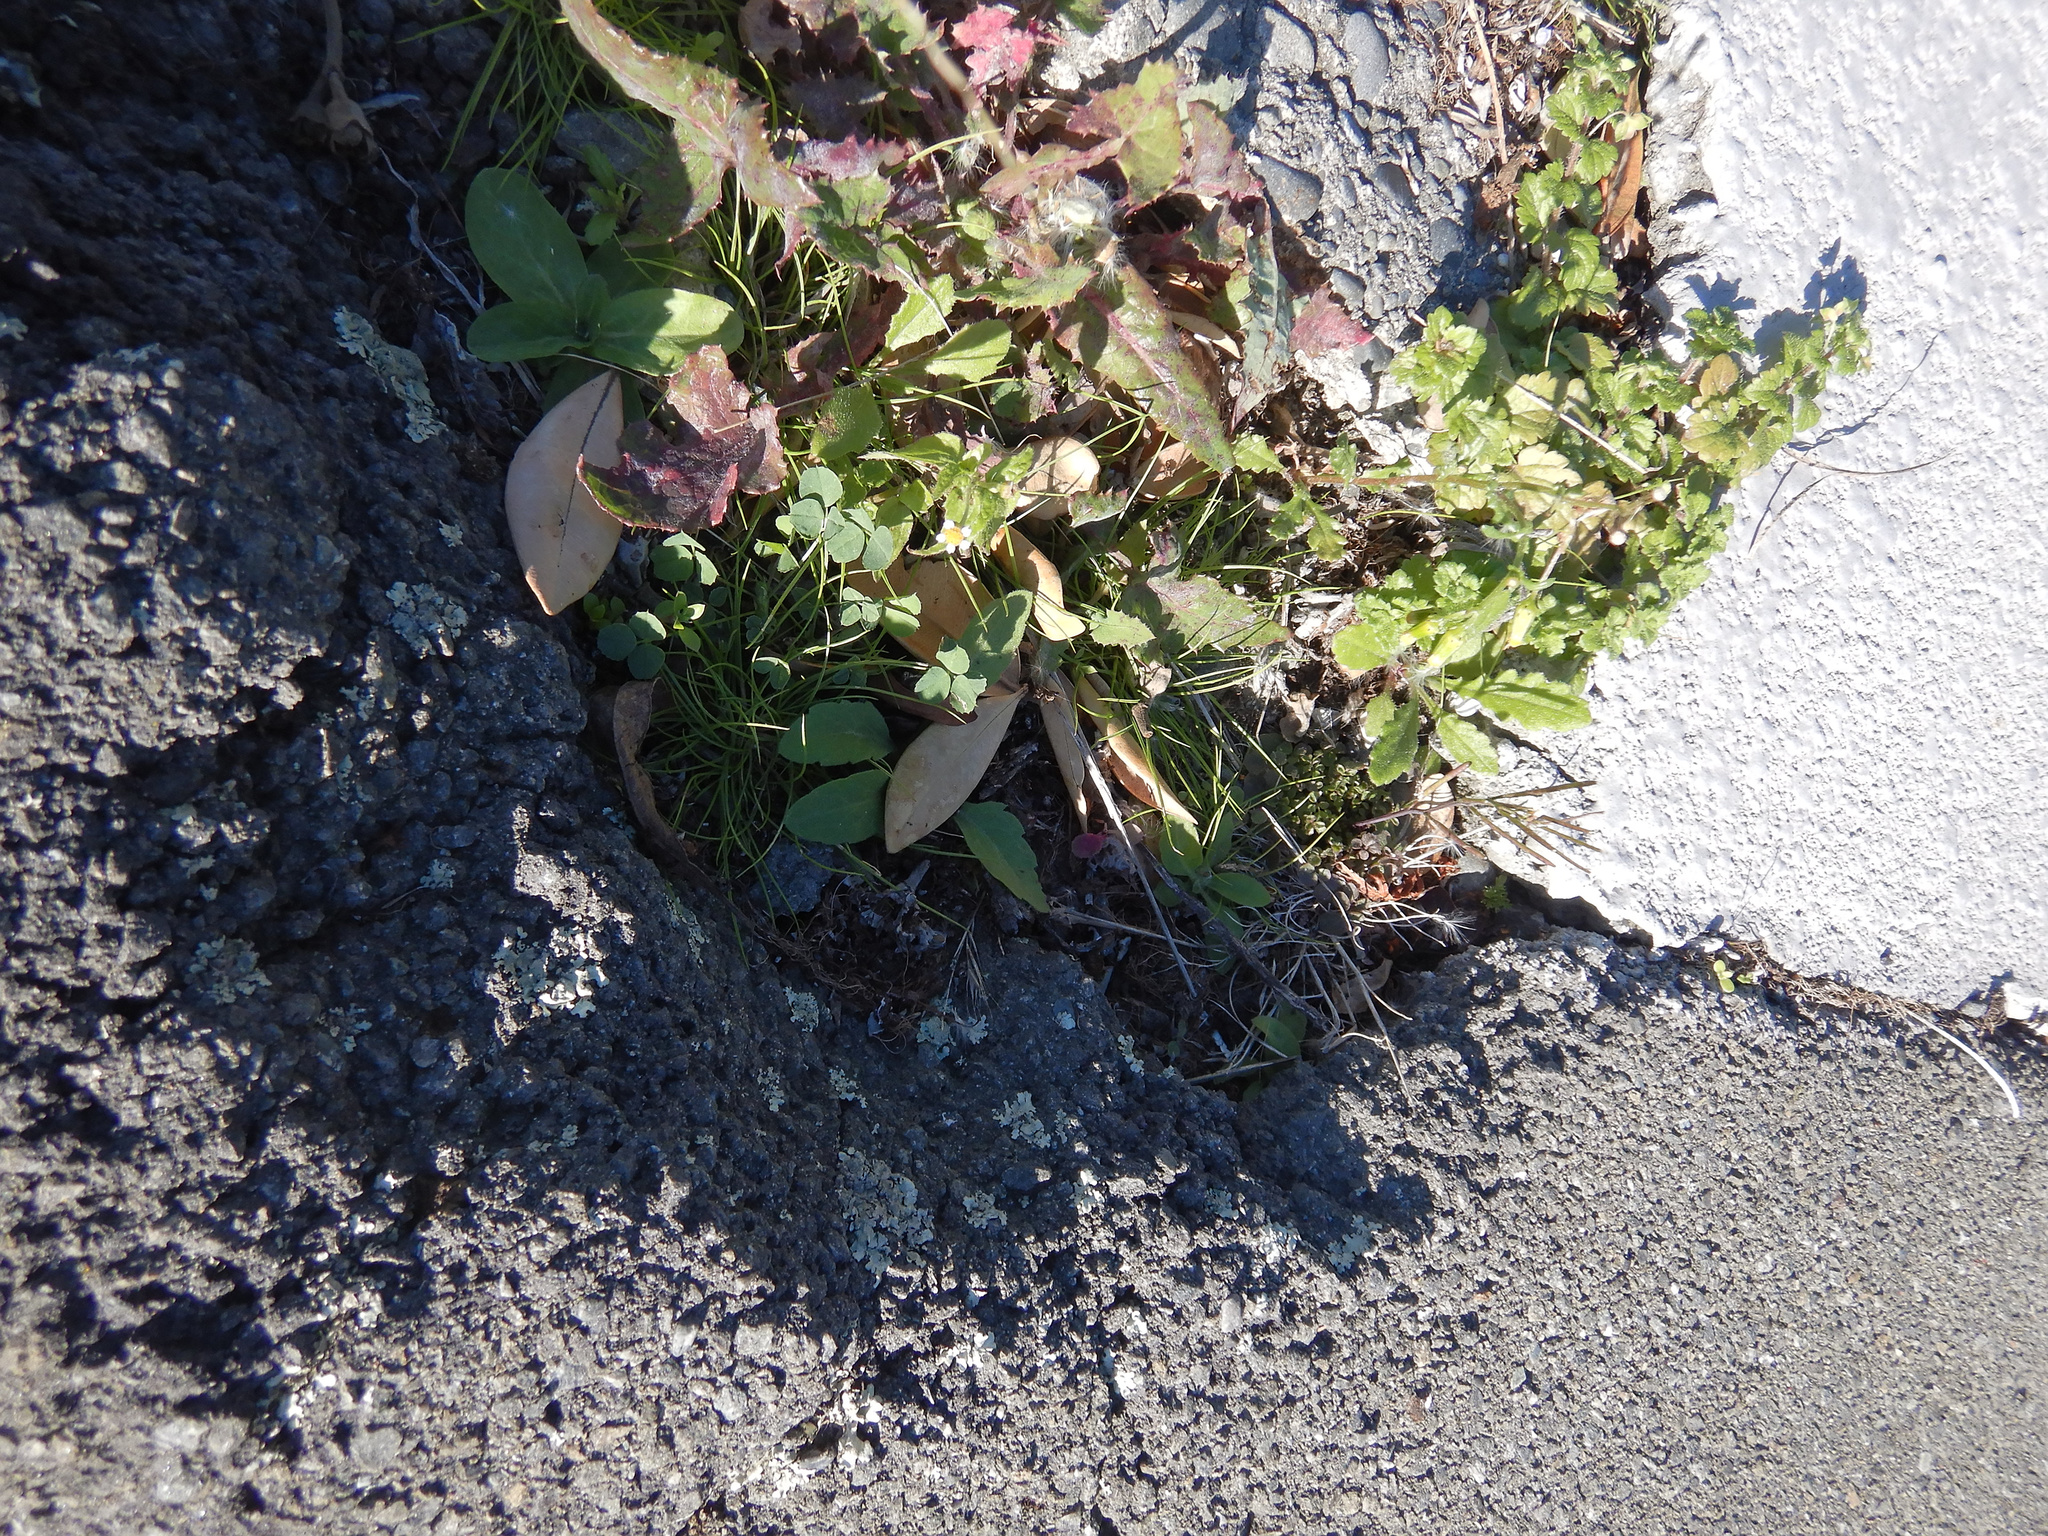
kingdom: Plantae
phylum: Tracheophyta
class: Magnoliopsida
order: Asterales
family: Asteraceae
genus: Senecio
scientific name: Senecio glomeratus
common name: Cutleaf burnweed
